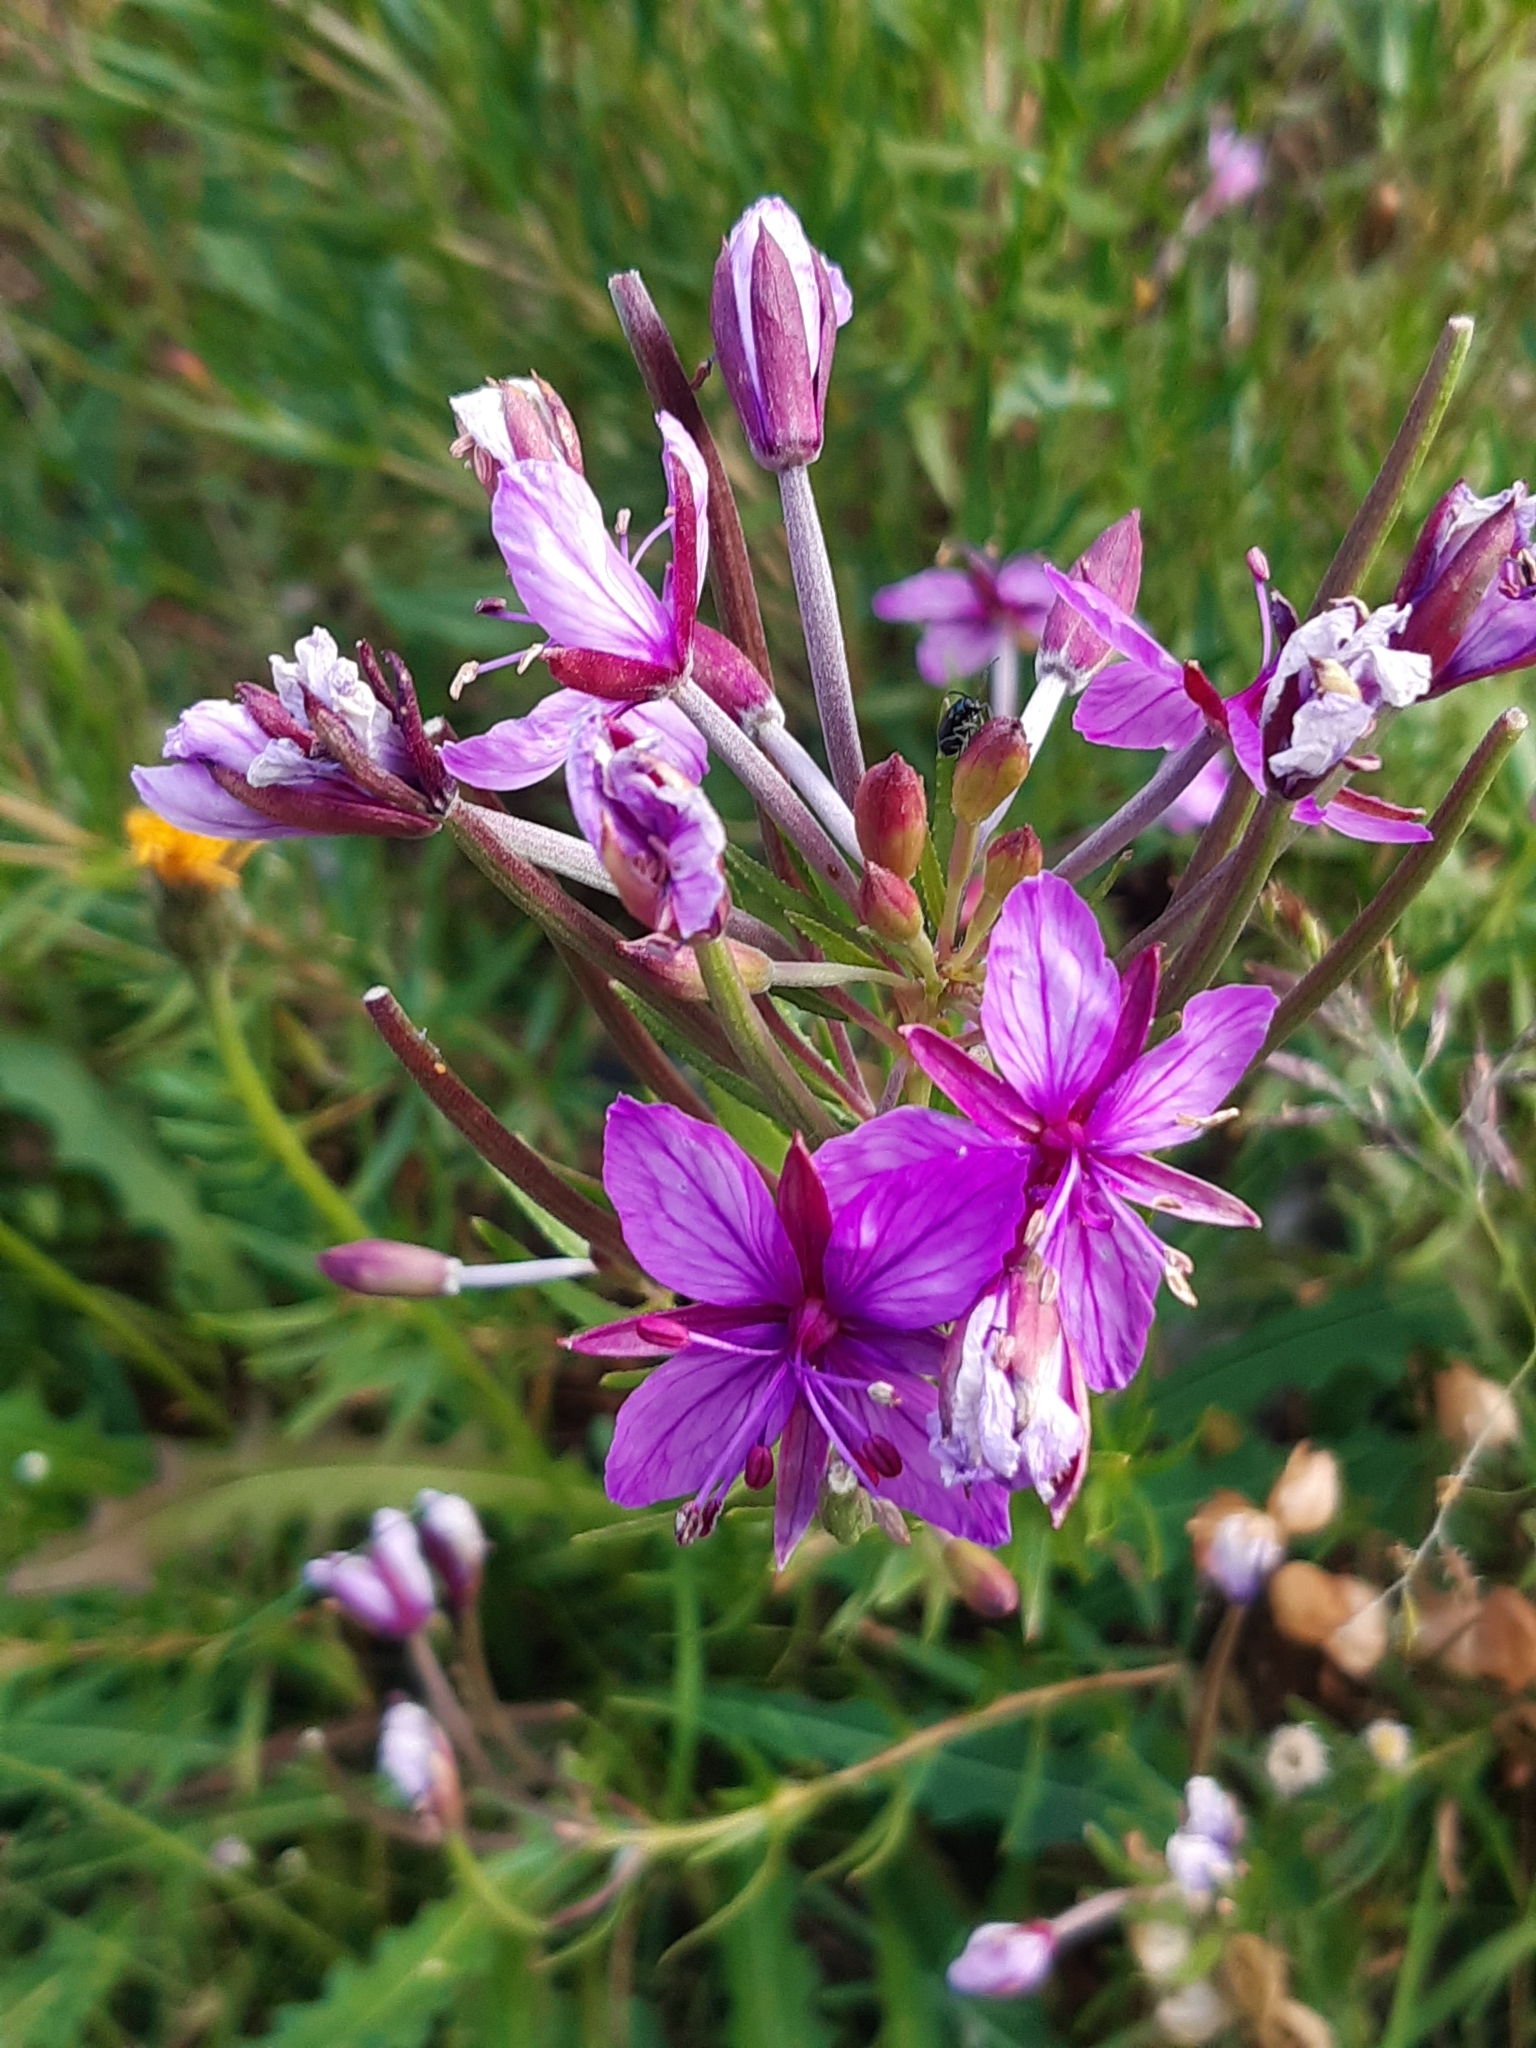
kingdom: Plantae
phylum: Tracheophyta
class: Magnoliopsida
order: Myrtales
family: Onagraceae
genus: Chamaenerion
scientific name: Chamaenerion fleischeri
